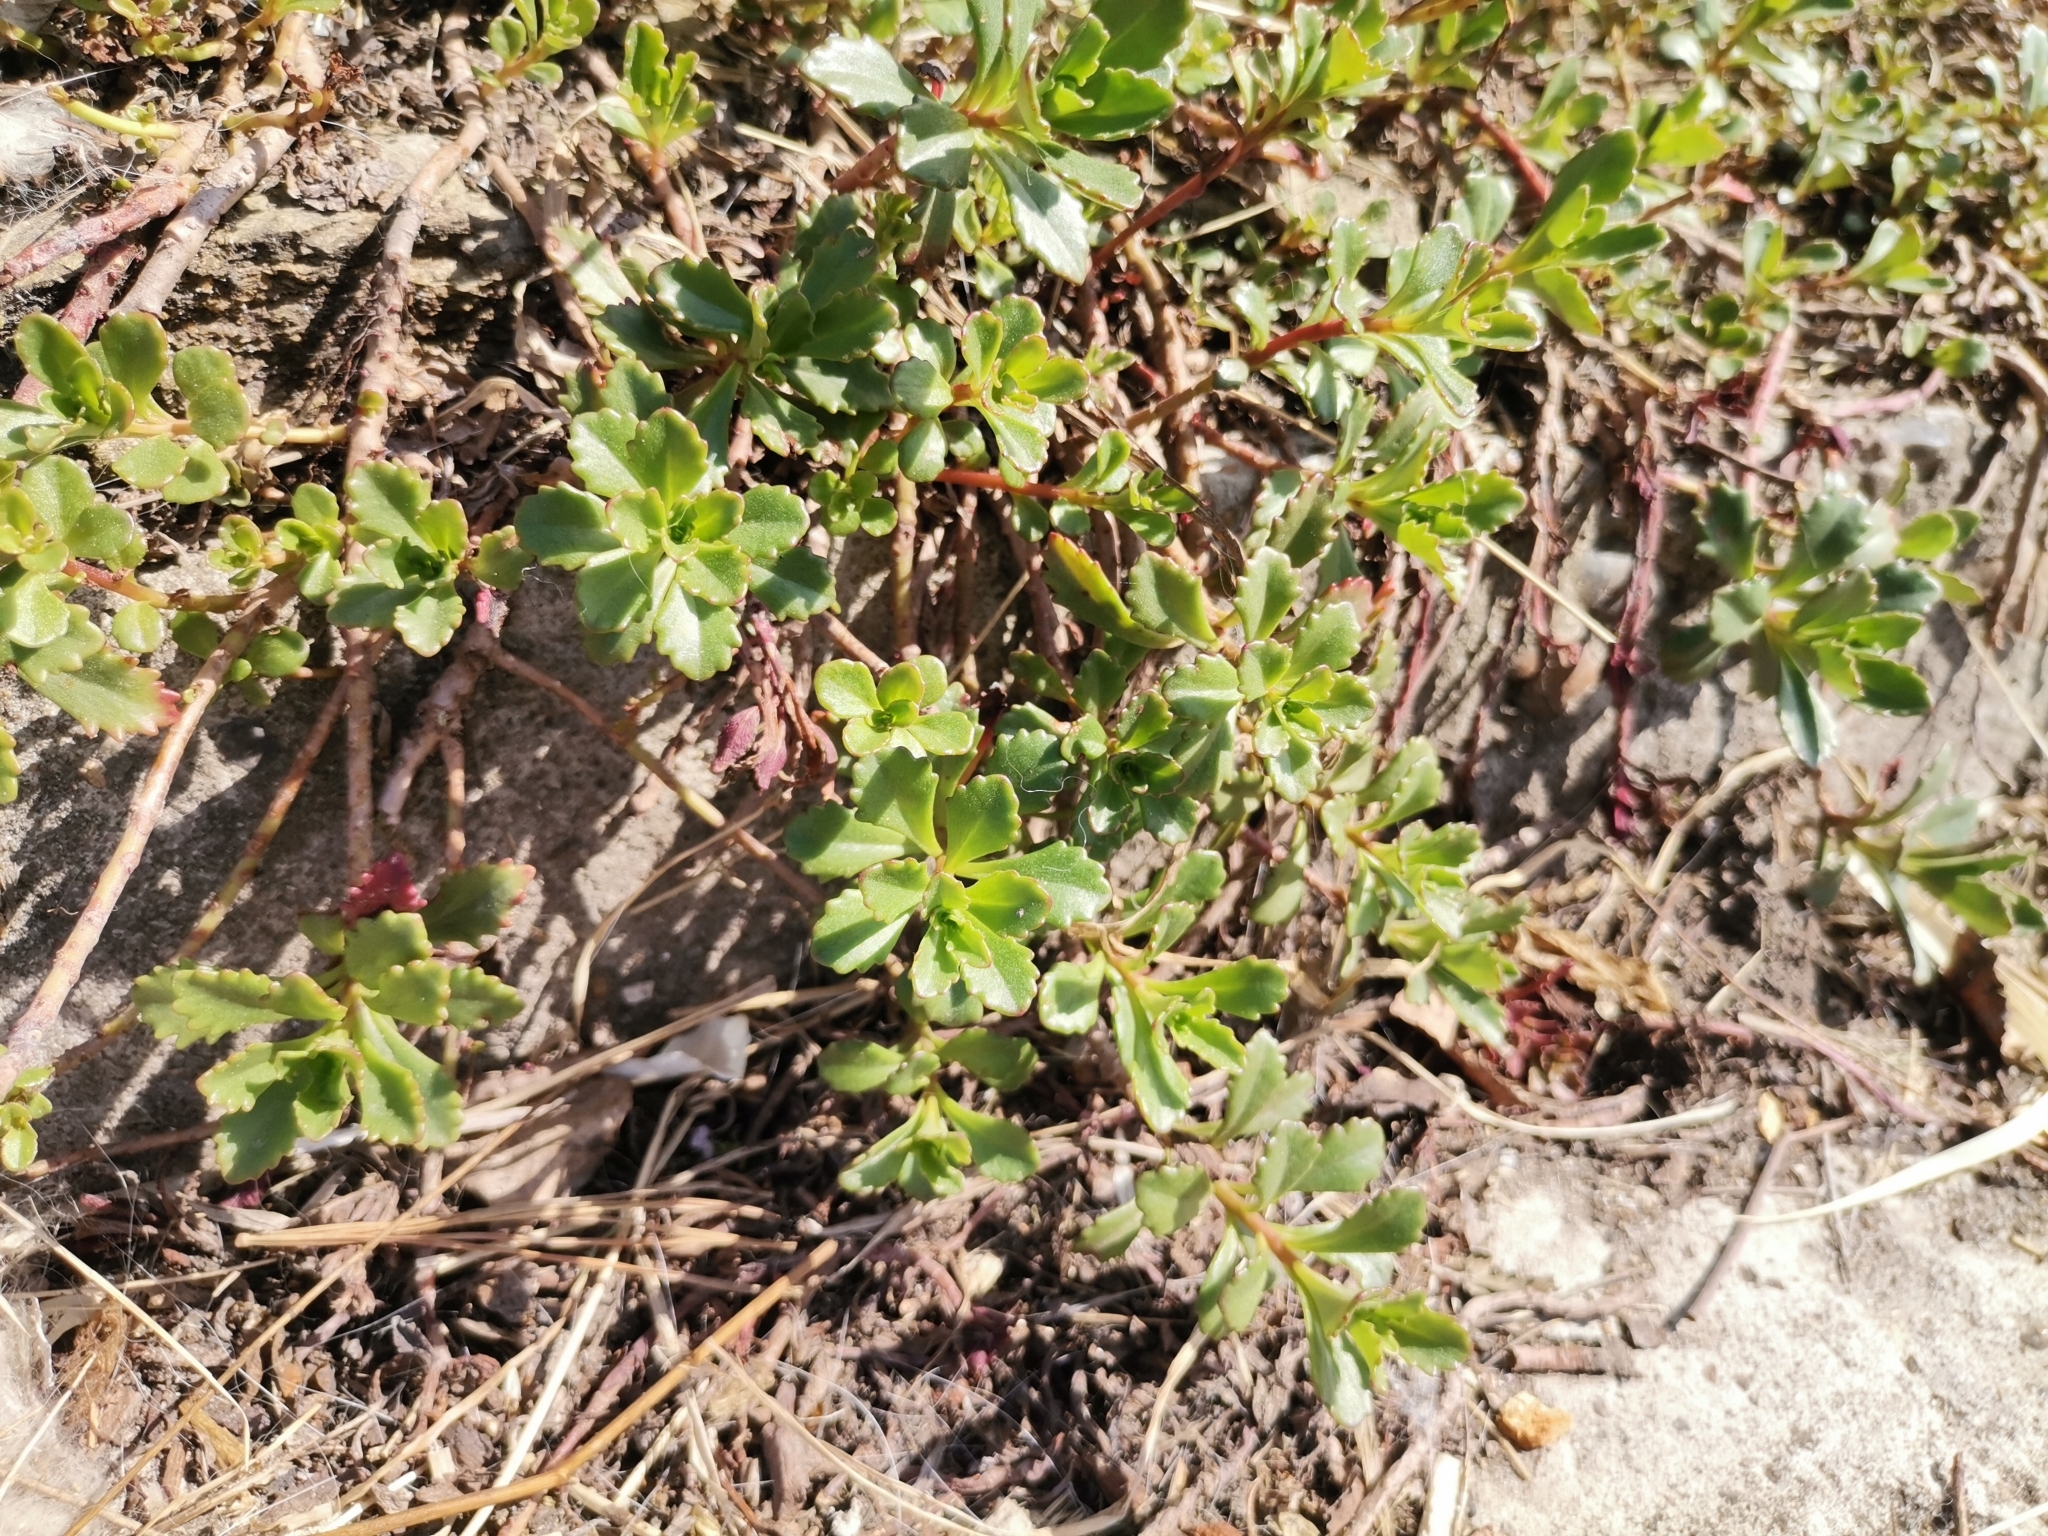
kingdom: Plantae
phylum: Tracheophyta
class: Magnoliopsida
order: Saxifragales
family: Crassulaceae
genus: Phedimus
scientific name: Phedimus hybridus
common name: Hybrid stonecrop
